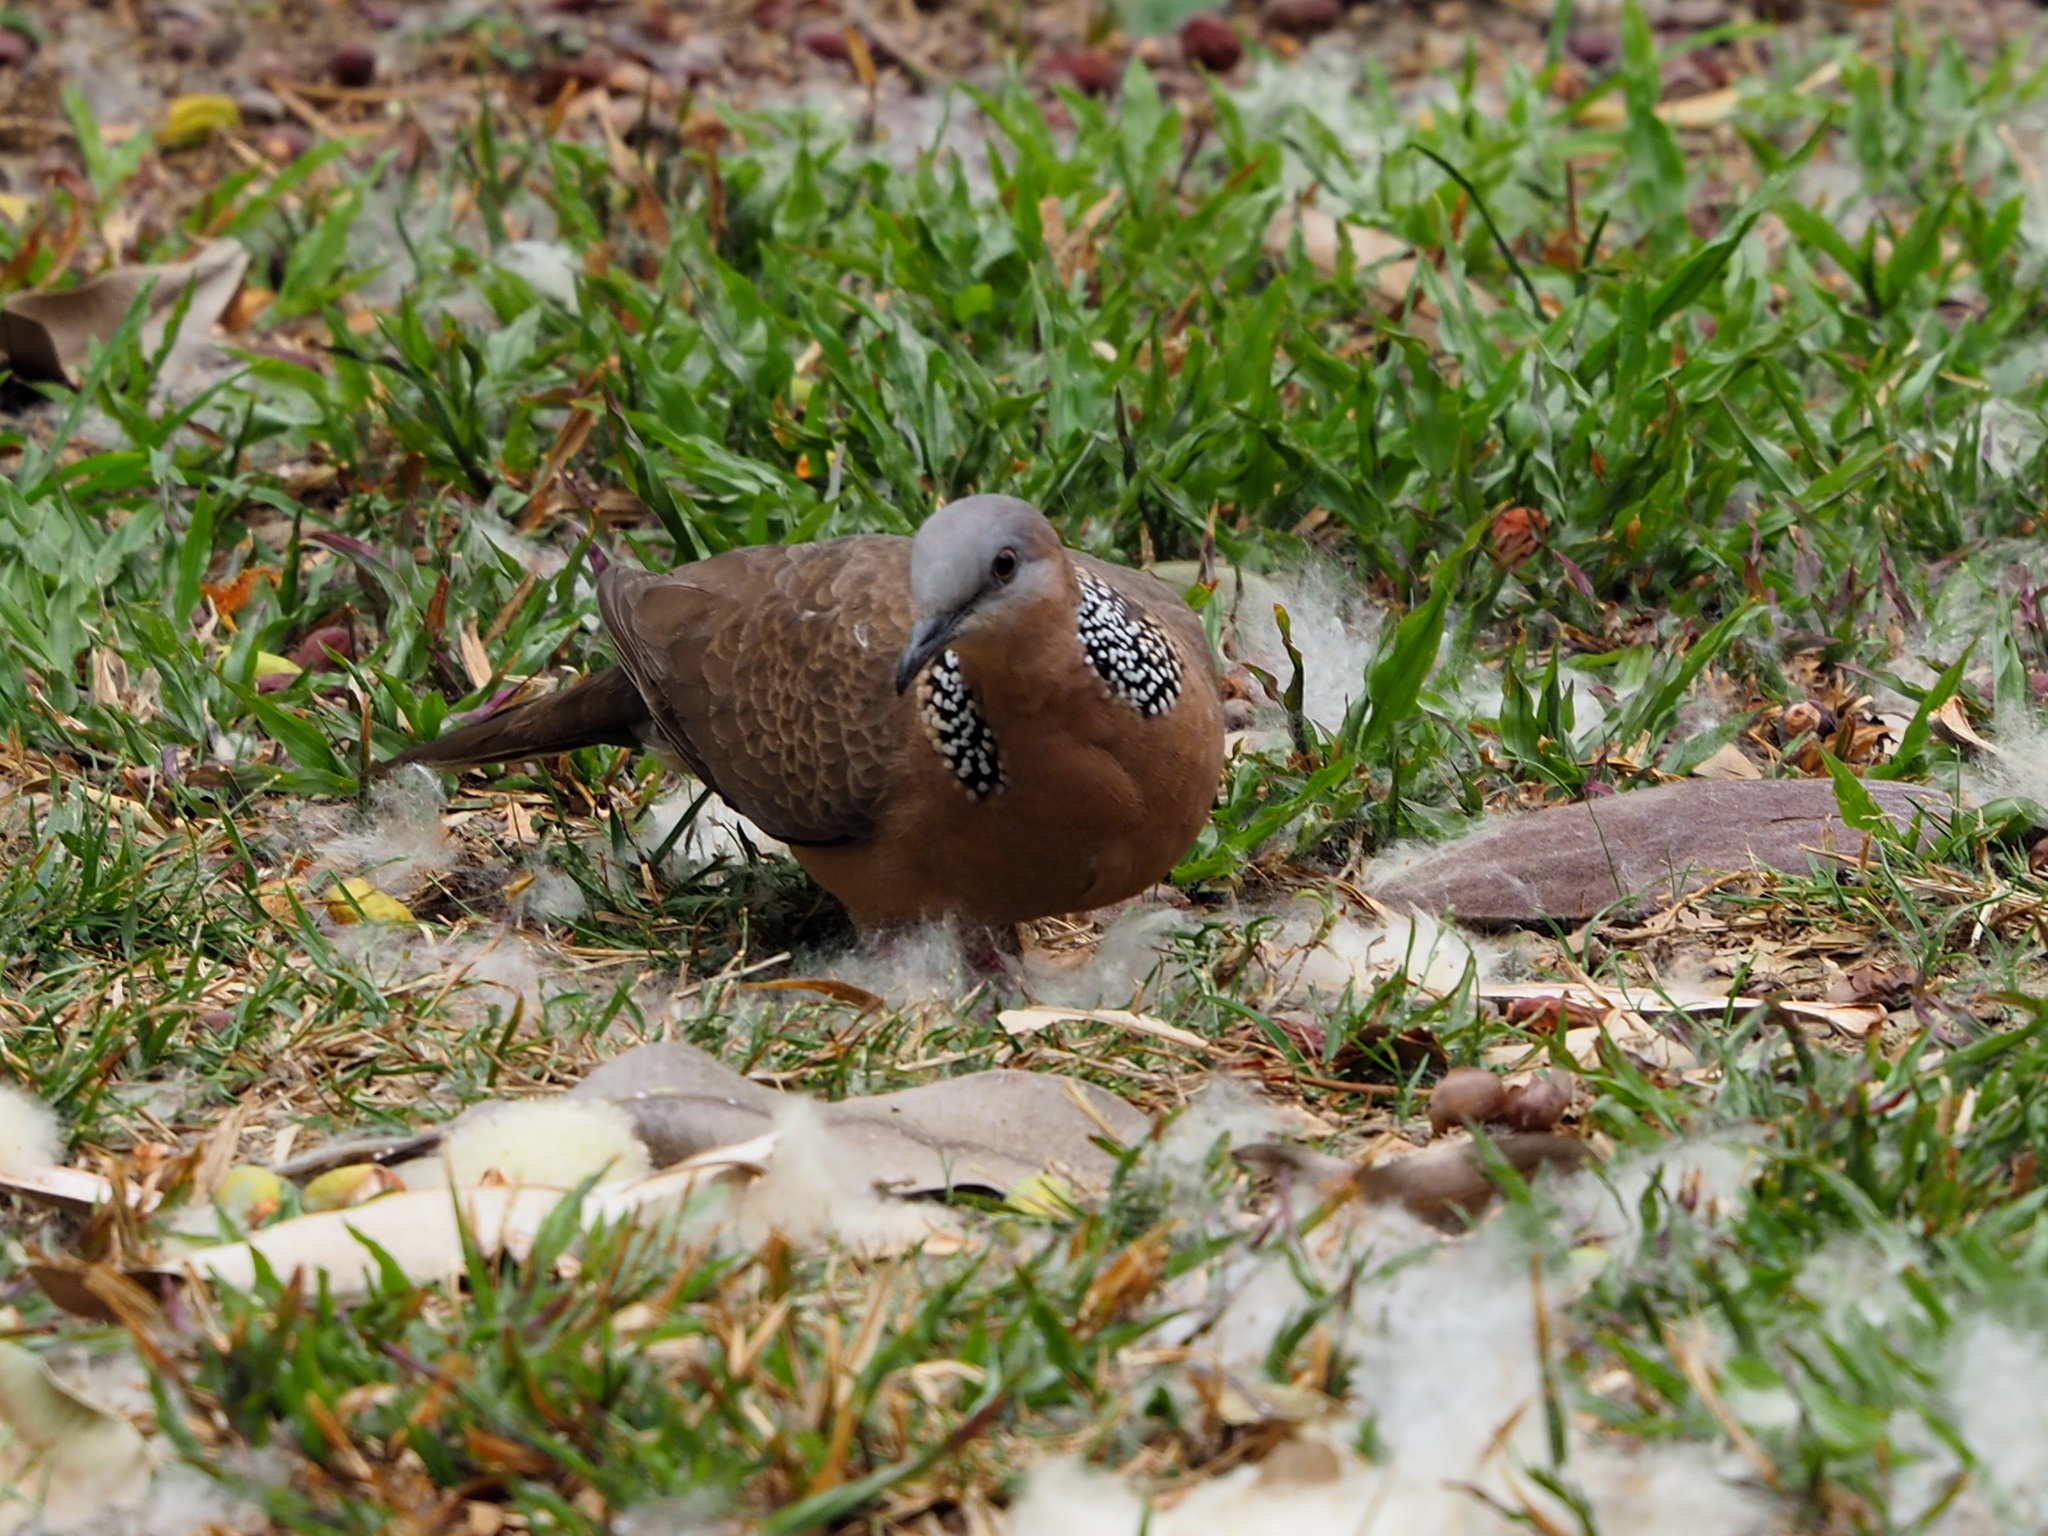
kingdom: Animalia
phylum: Chordata
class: Aves
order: Columbiformes
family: Columbidae
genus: Spilopelia
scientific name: Spilopelia chinensis
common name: Spotted dove
